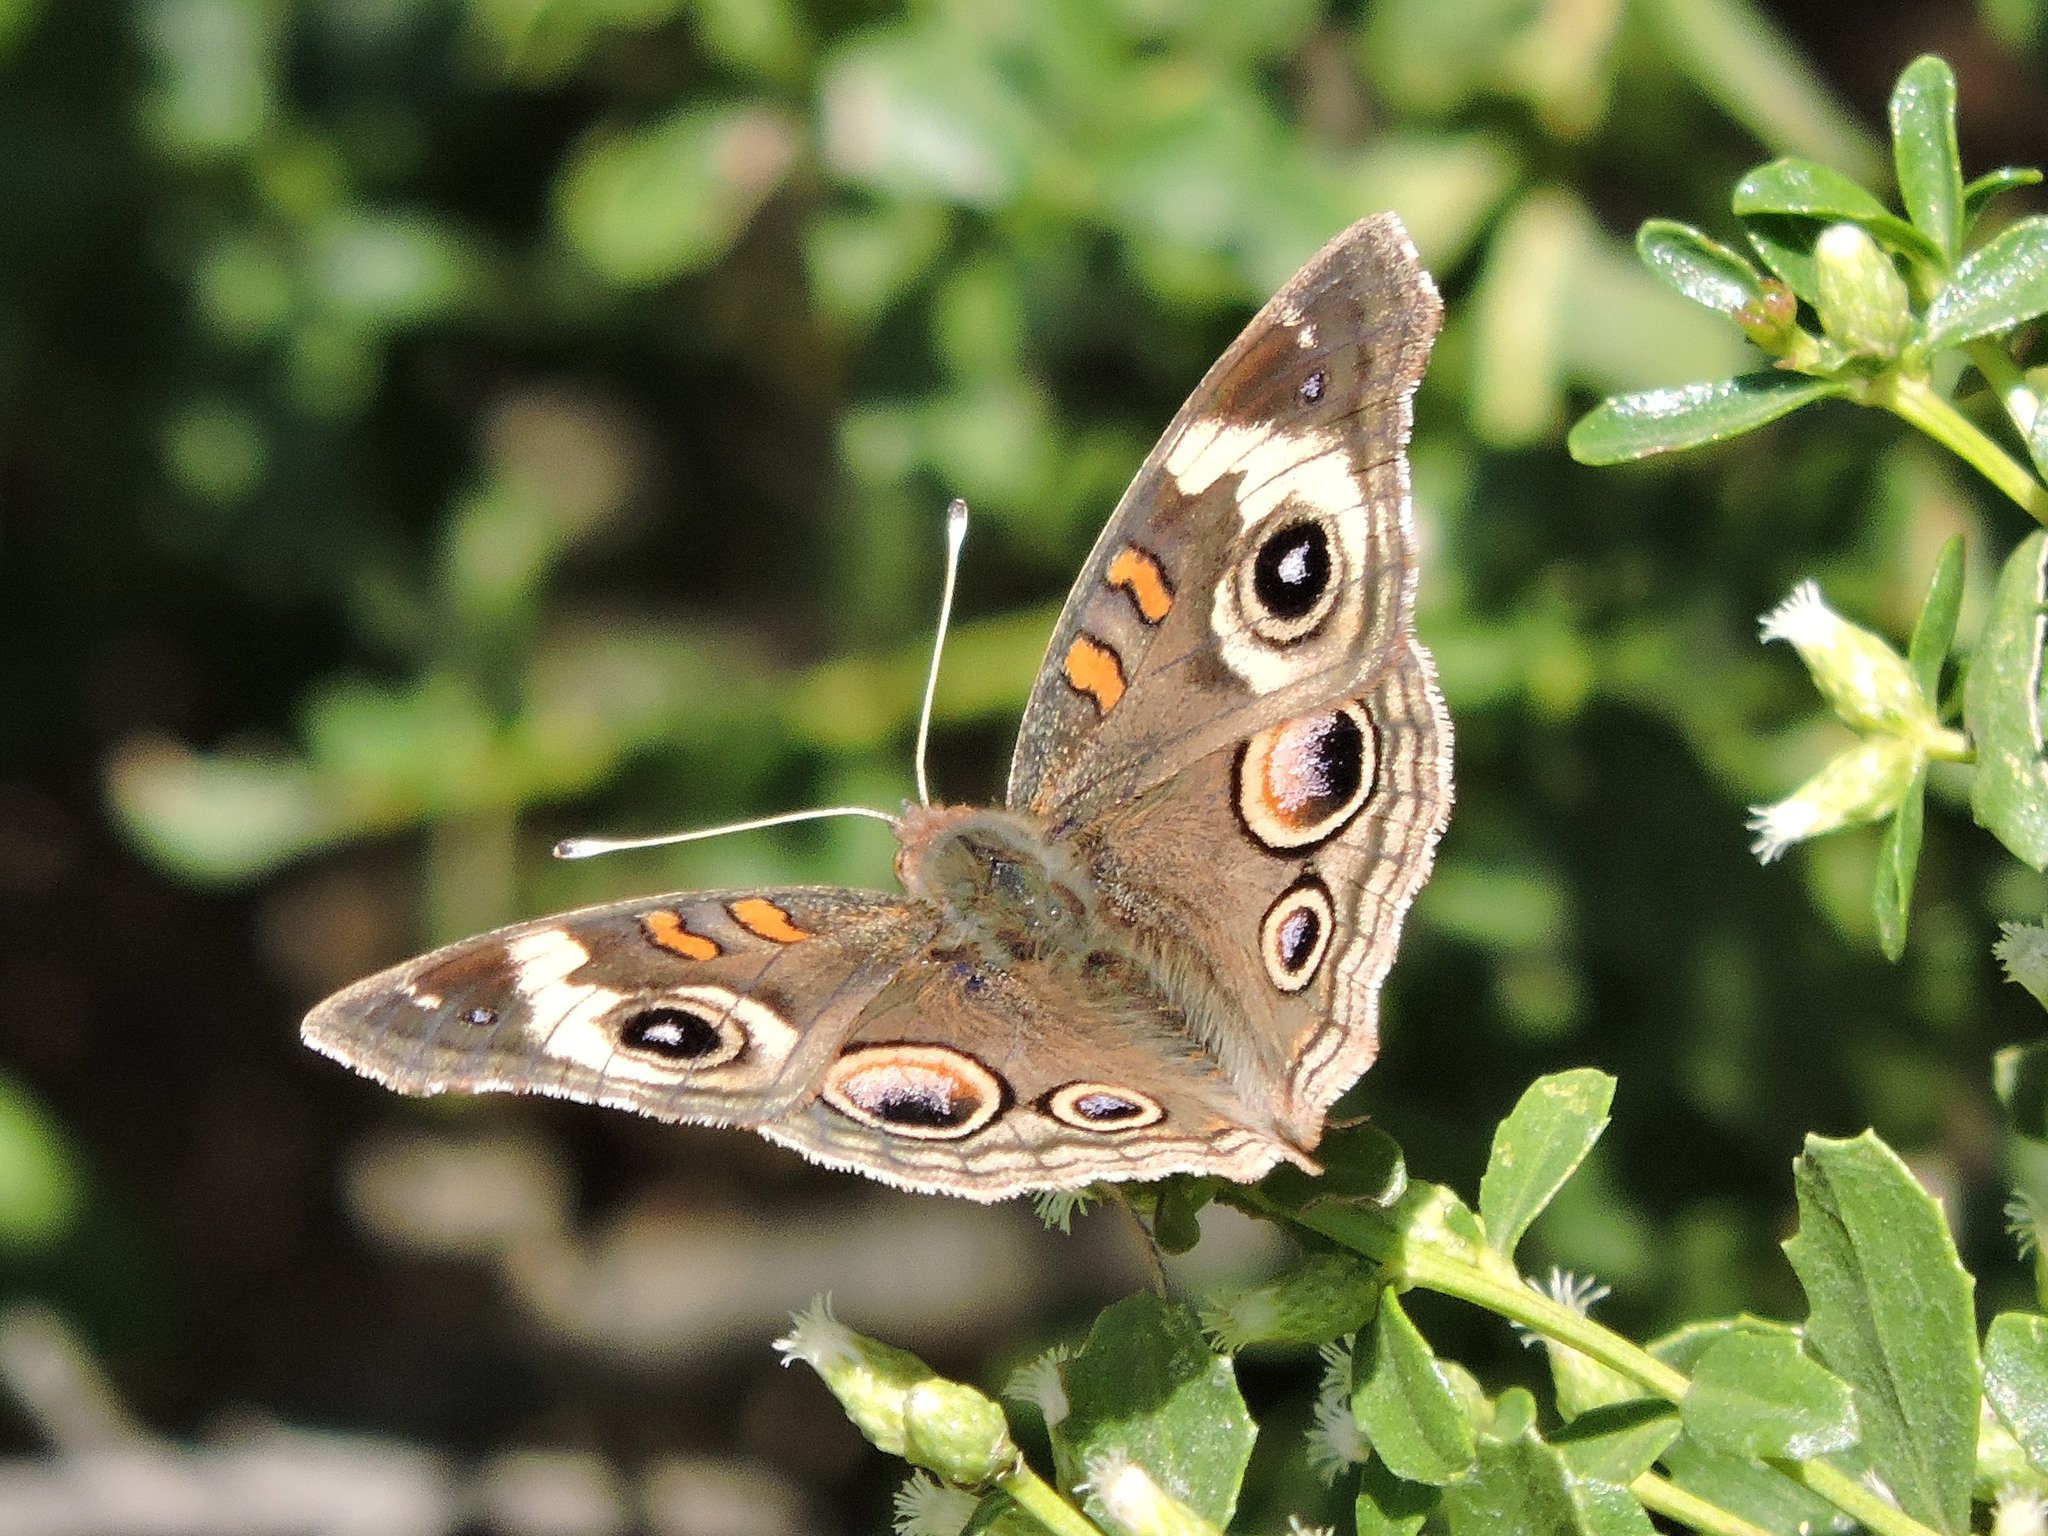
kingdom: Animalia
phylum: Arthropoda
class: Insecta
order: Lepidoptera
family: Nymphalidae
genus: Junonia
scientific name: Junonia grisea
